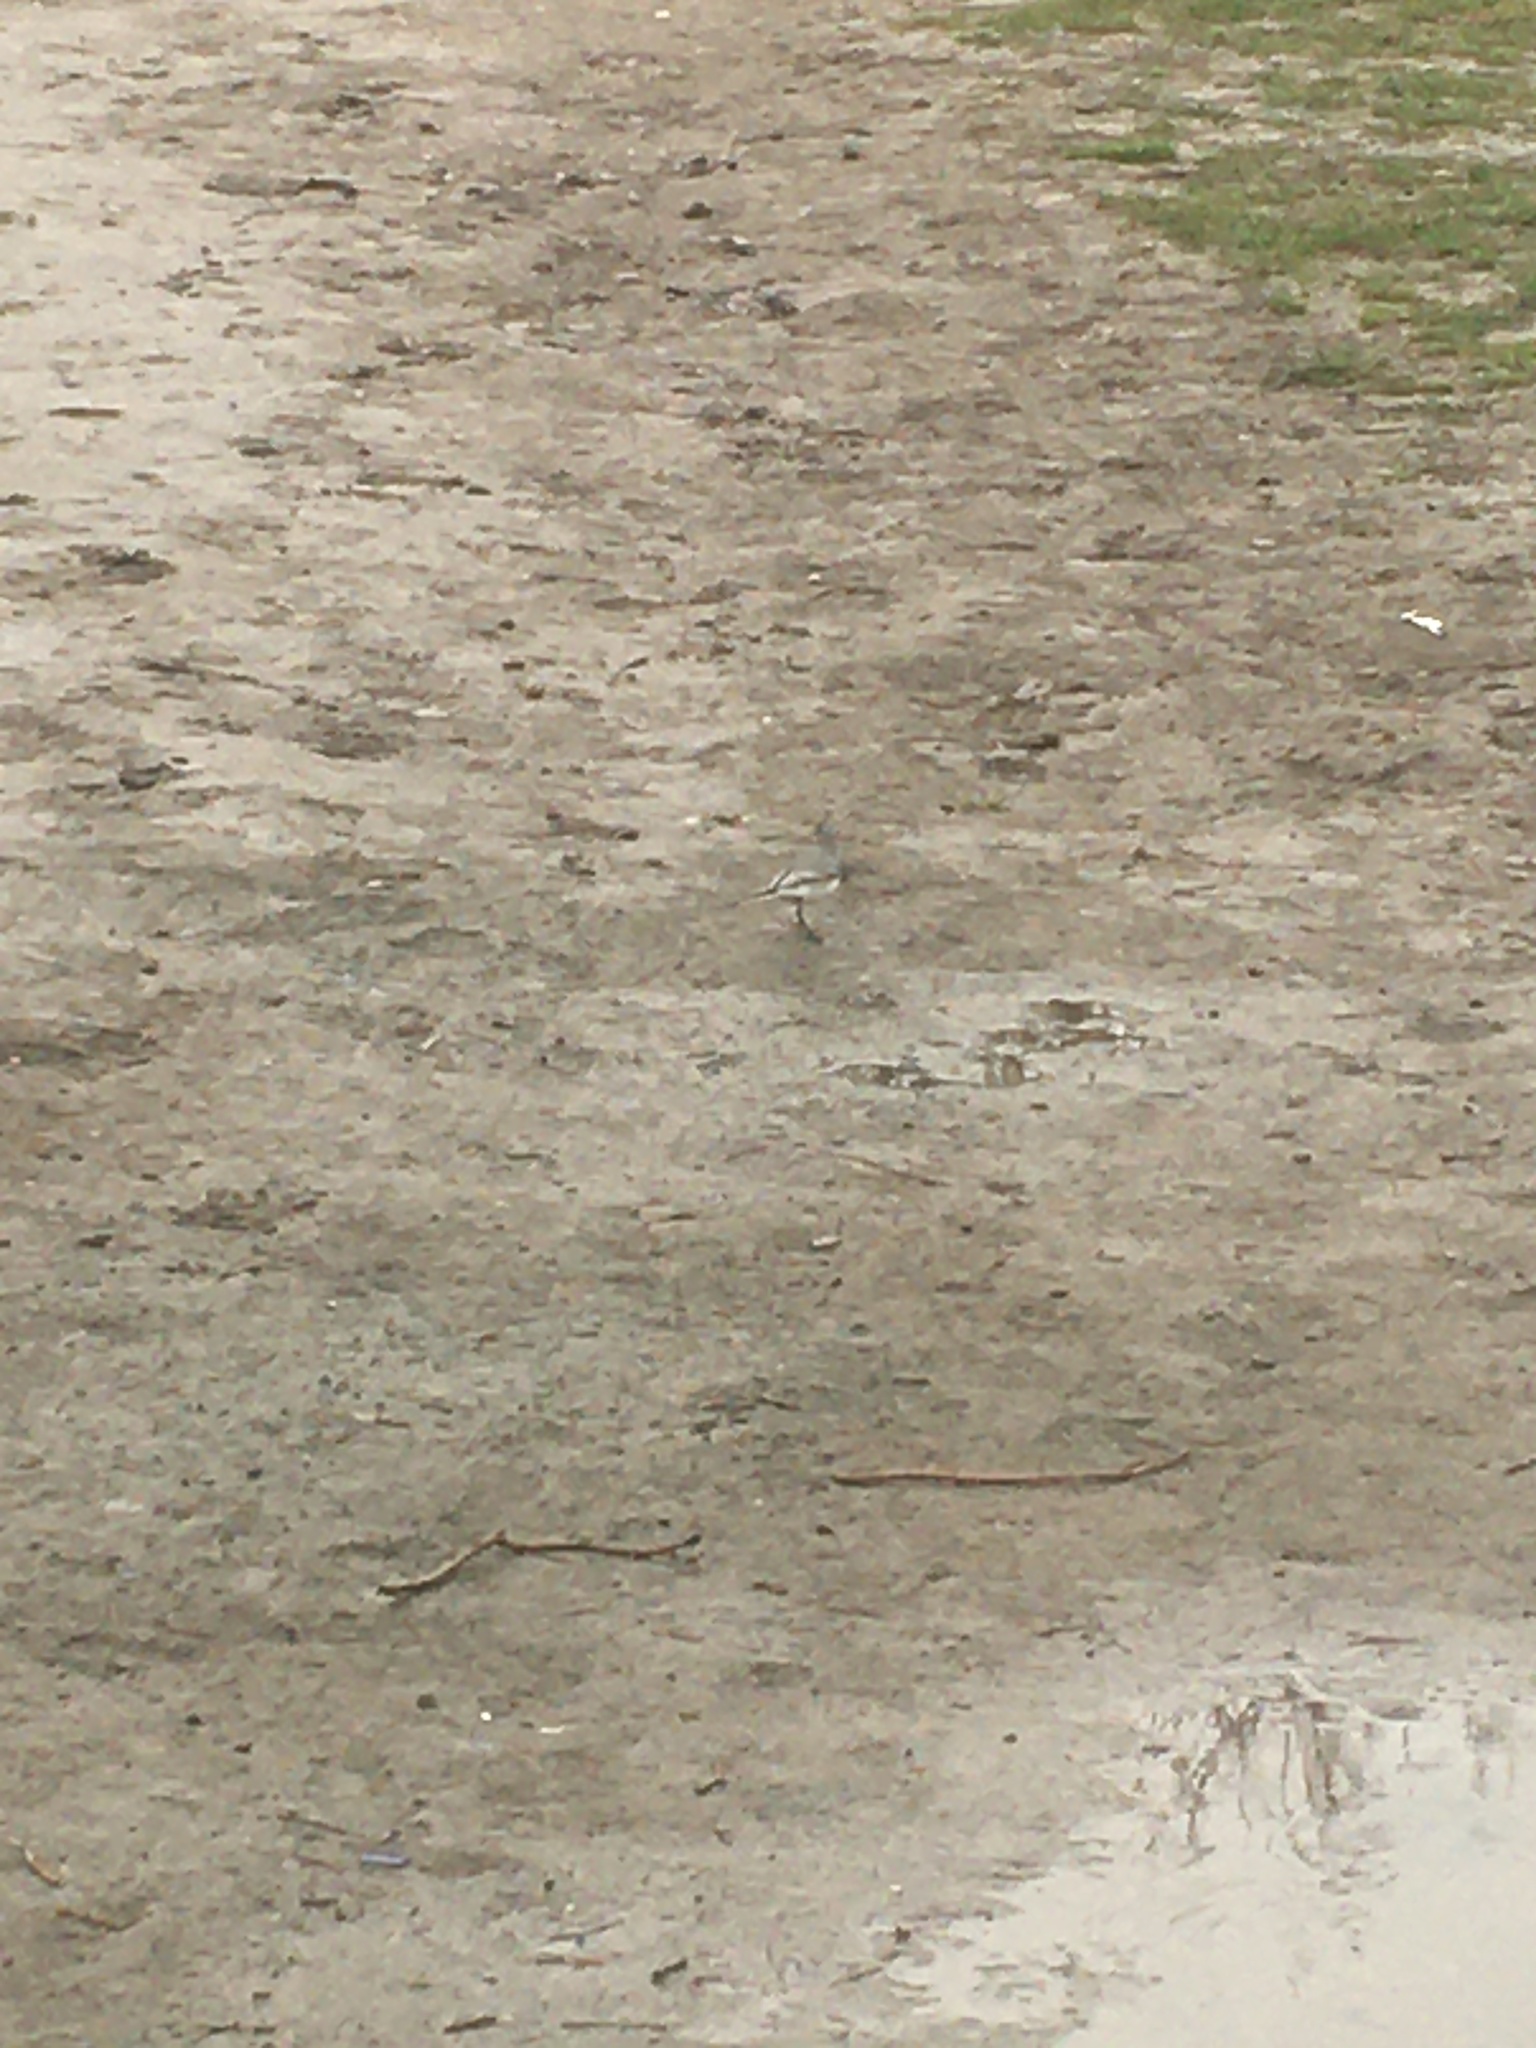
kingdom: Animalia
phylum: Chordata
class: Aves
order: Passeriformes
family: Motacillidae
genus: Motacilla
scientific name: Motacilla alba
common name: White wagtail
